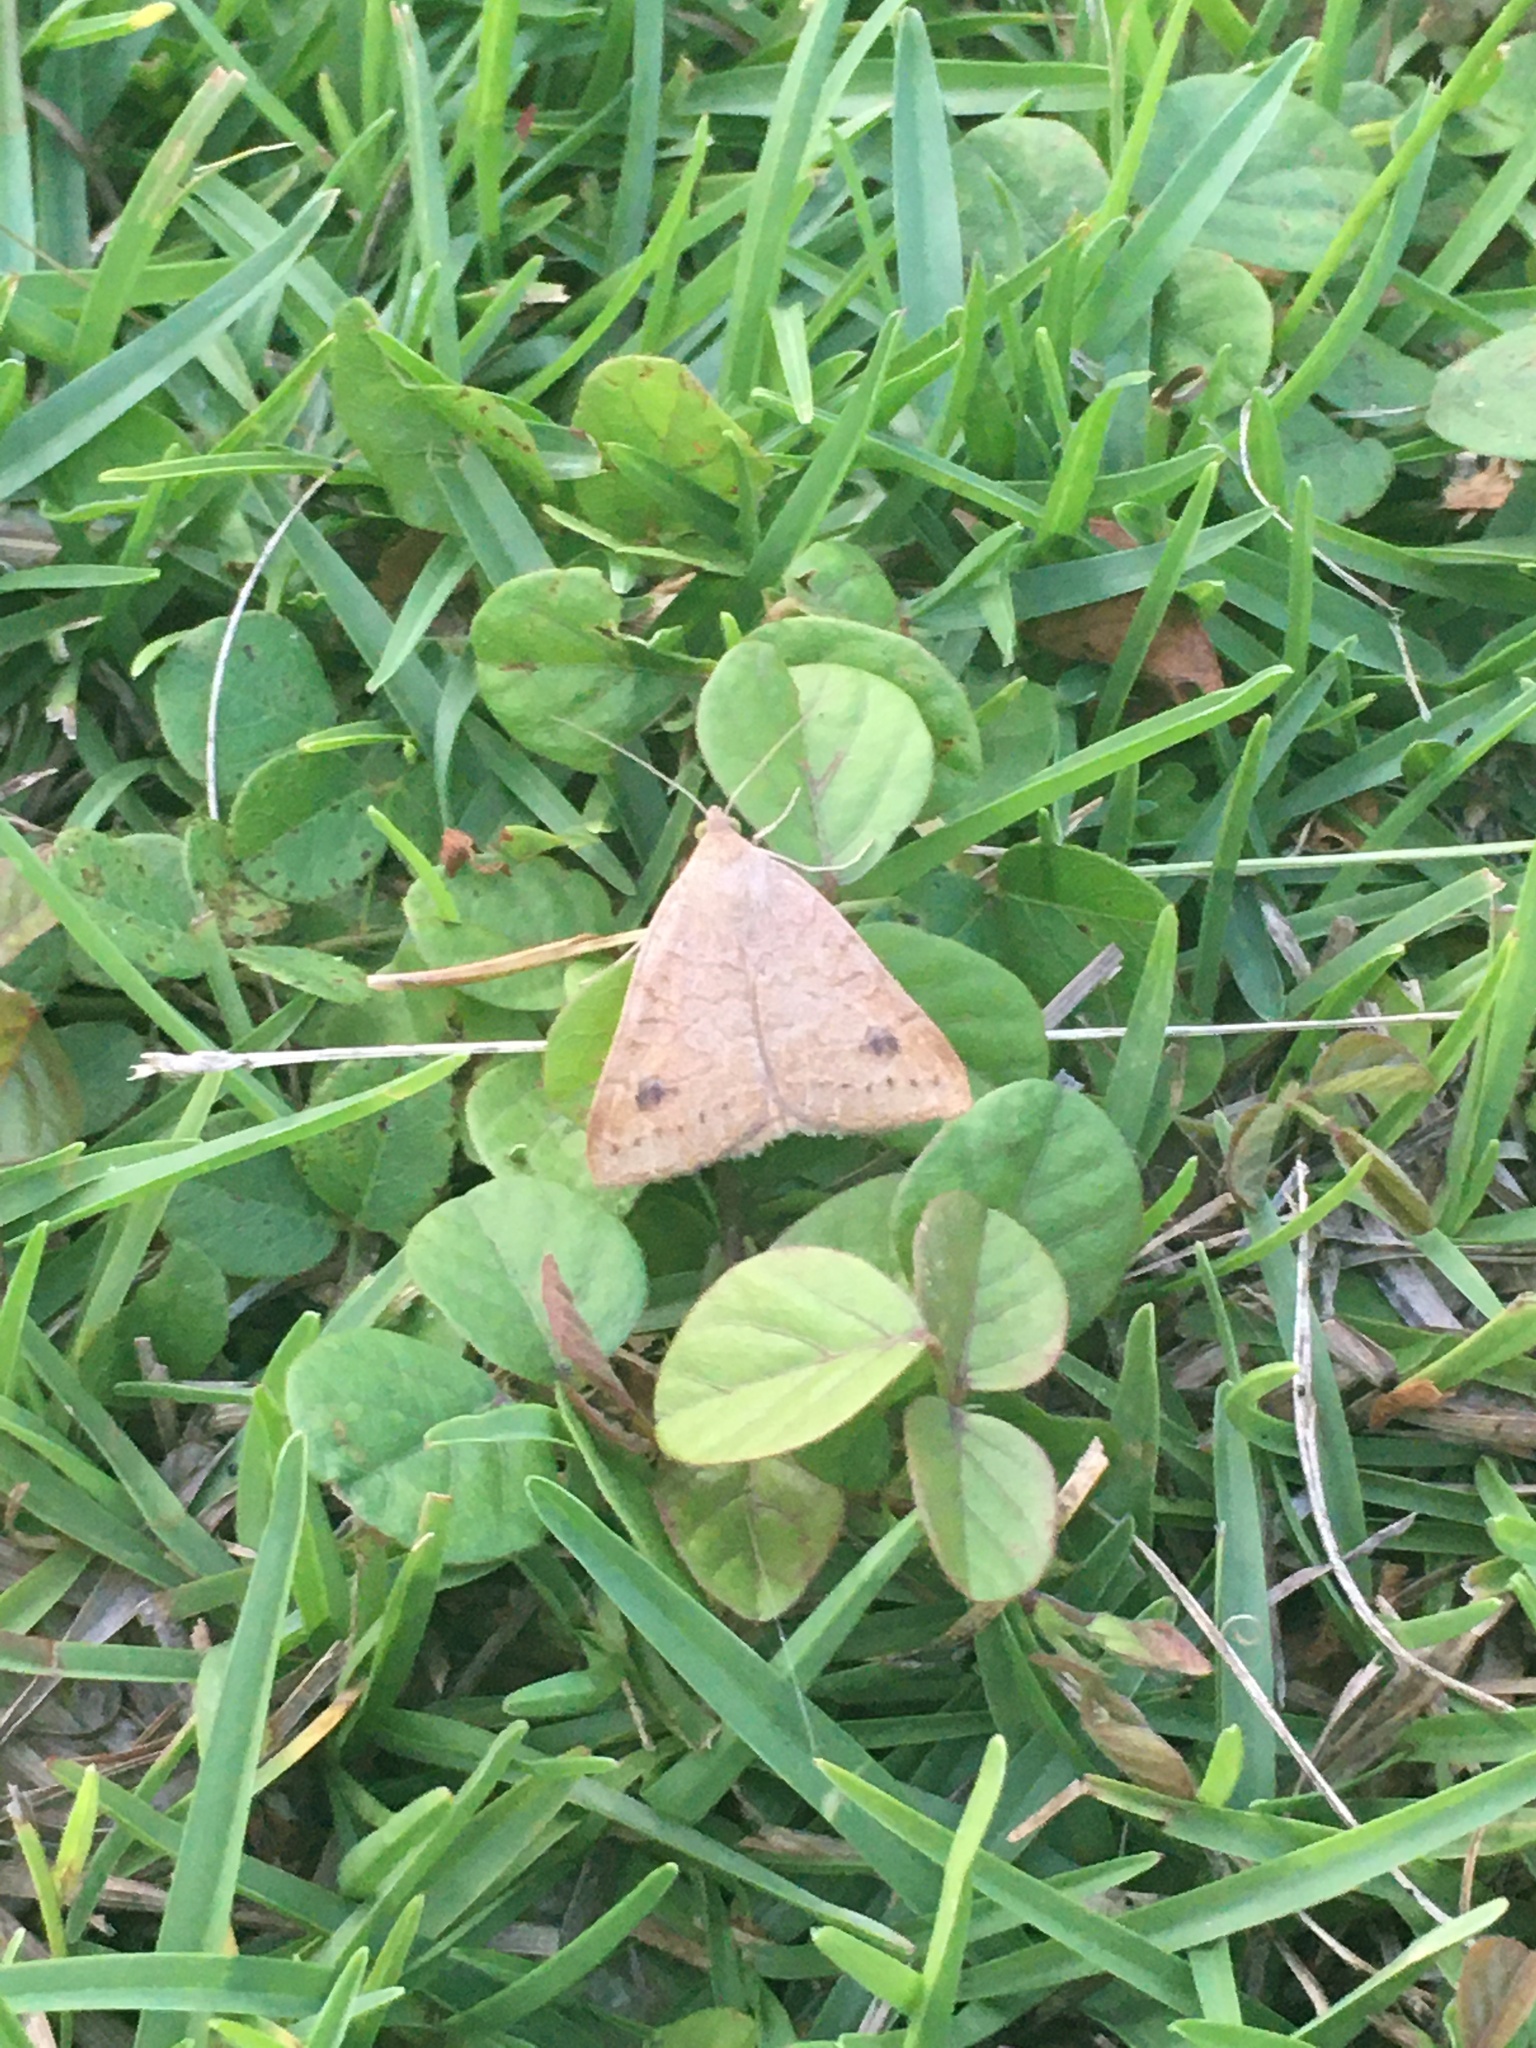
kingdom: Animalia
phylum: Arthropoda
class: Insecta
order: Lepidoptera
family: Erebidae
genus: Caenurgia
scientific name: Caenurgia chloropha
